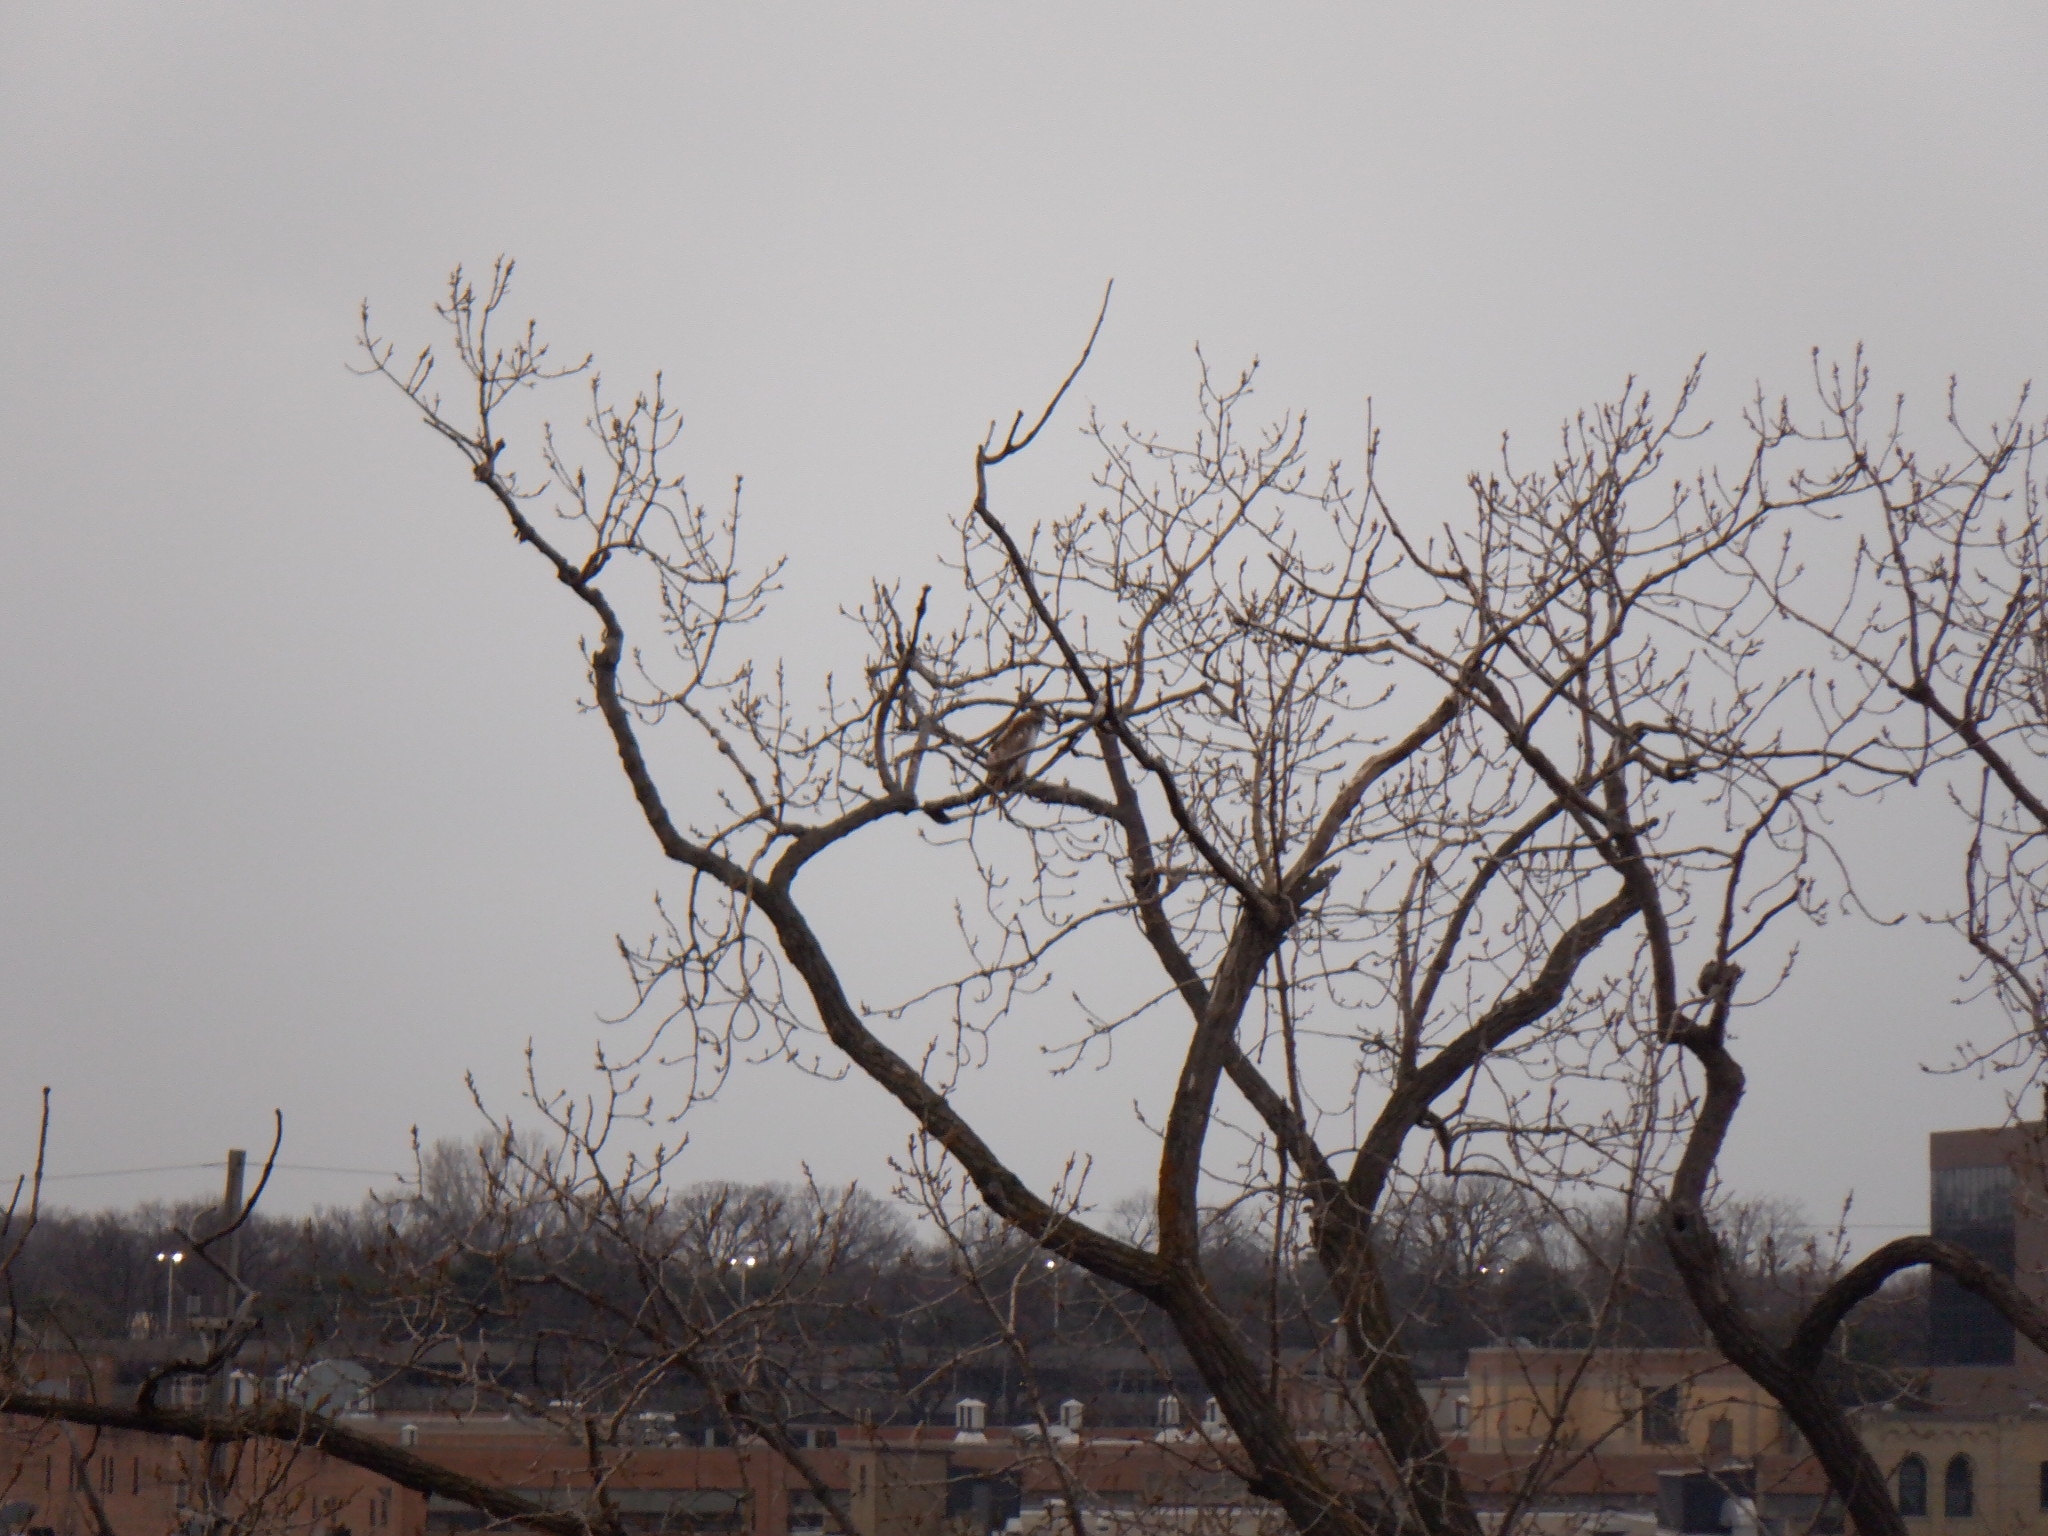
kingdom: Animalia
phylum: Chordata
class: Aves
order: Accipitriformes
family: Accipitridae
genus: Buteo
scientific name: Buteo jamaicensis
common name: Red-tailed hawk
